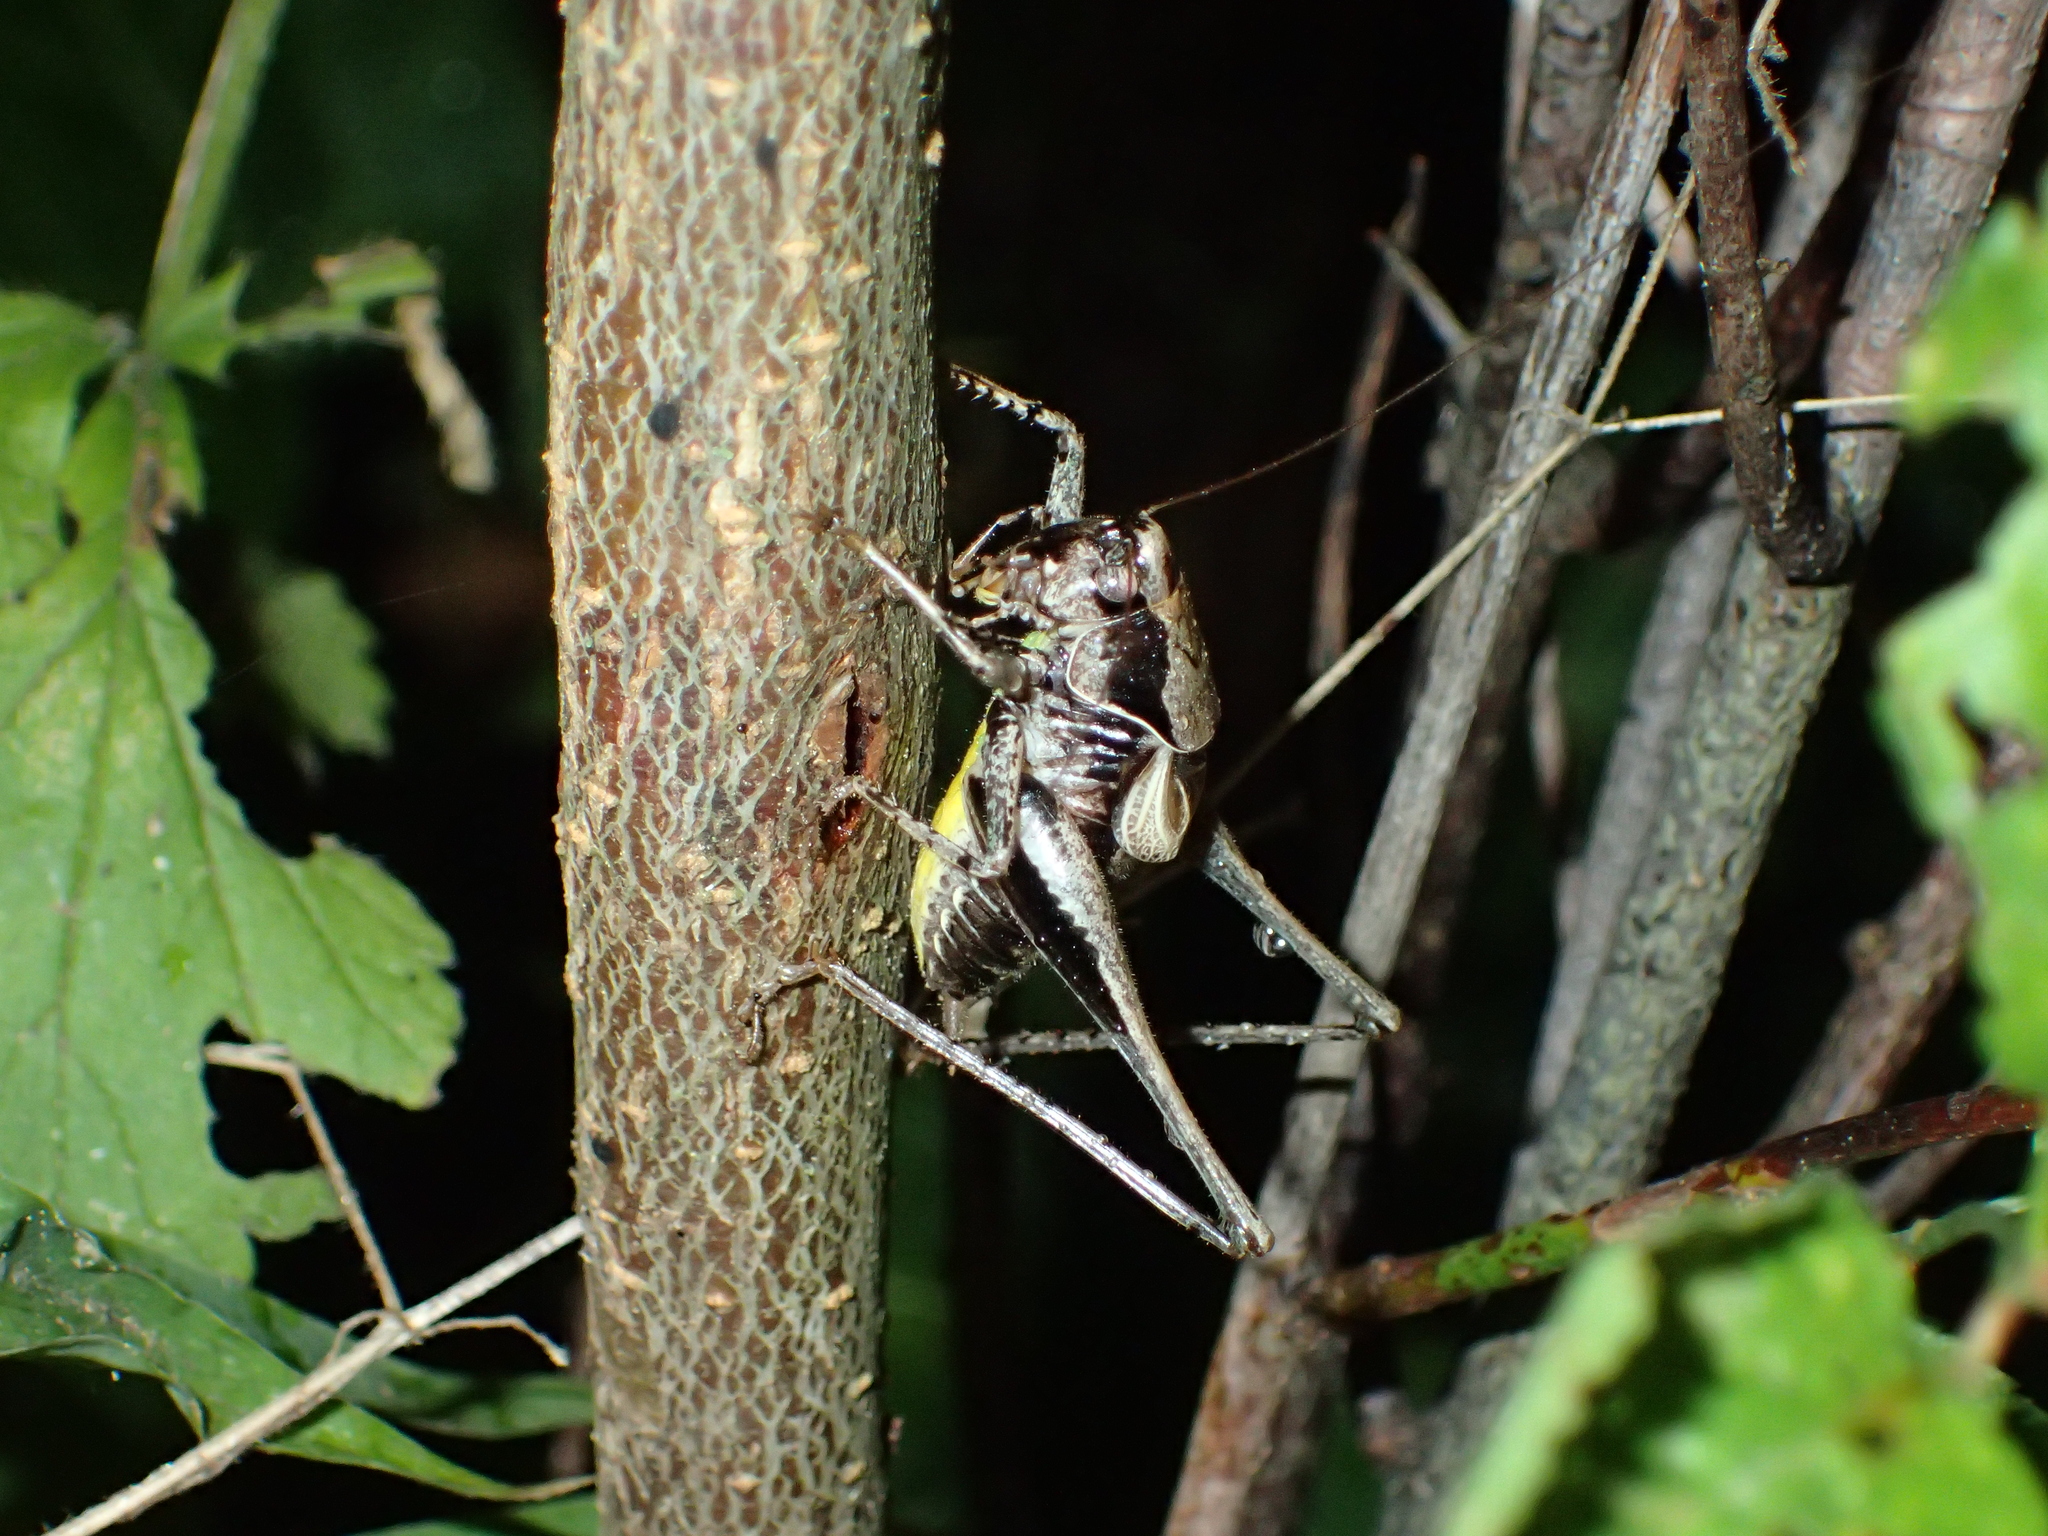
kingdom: Animalia
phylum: Arthropoda
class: Insecta
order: Orthoptera
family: Tettigoniidae
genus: Pholidoptera
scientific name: Pholidoptera griseoaptera
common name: Dark bush-cricket
